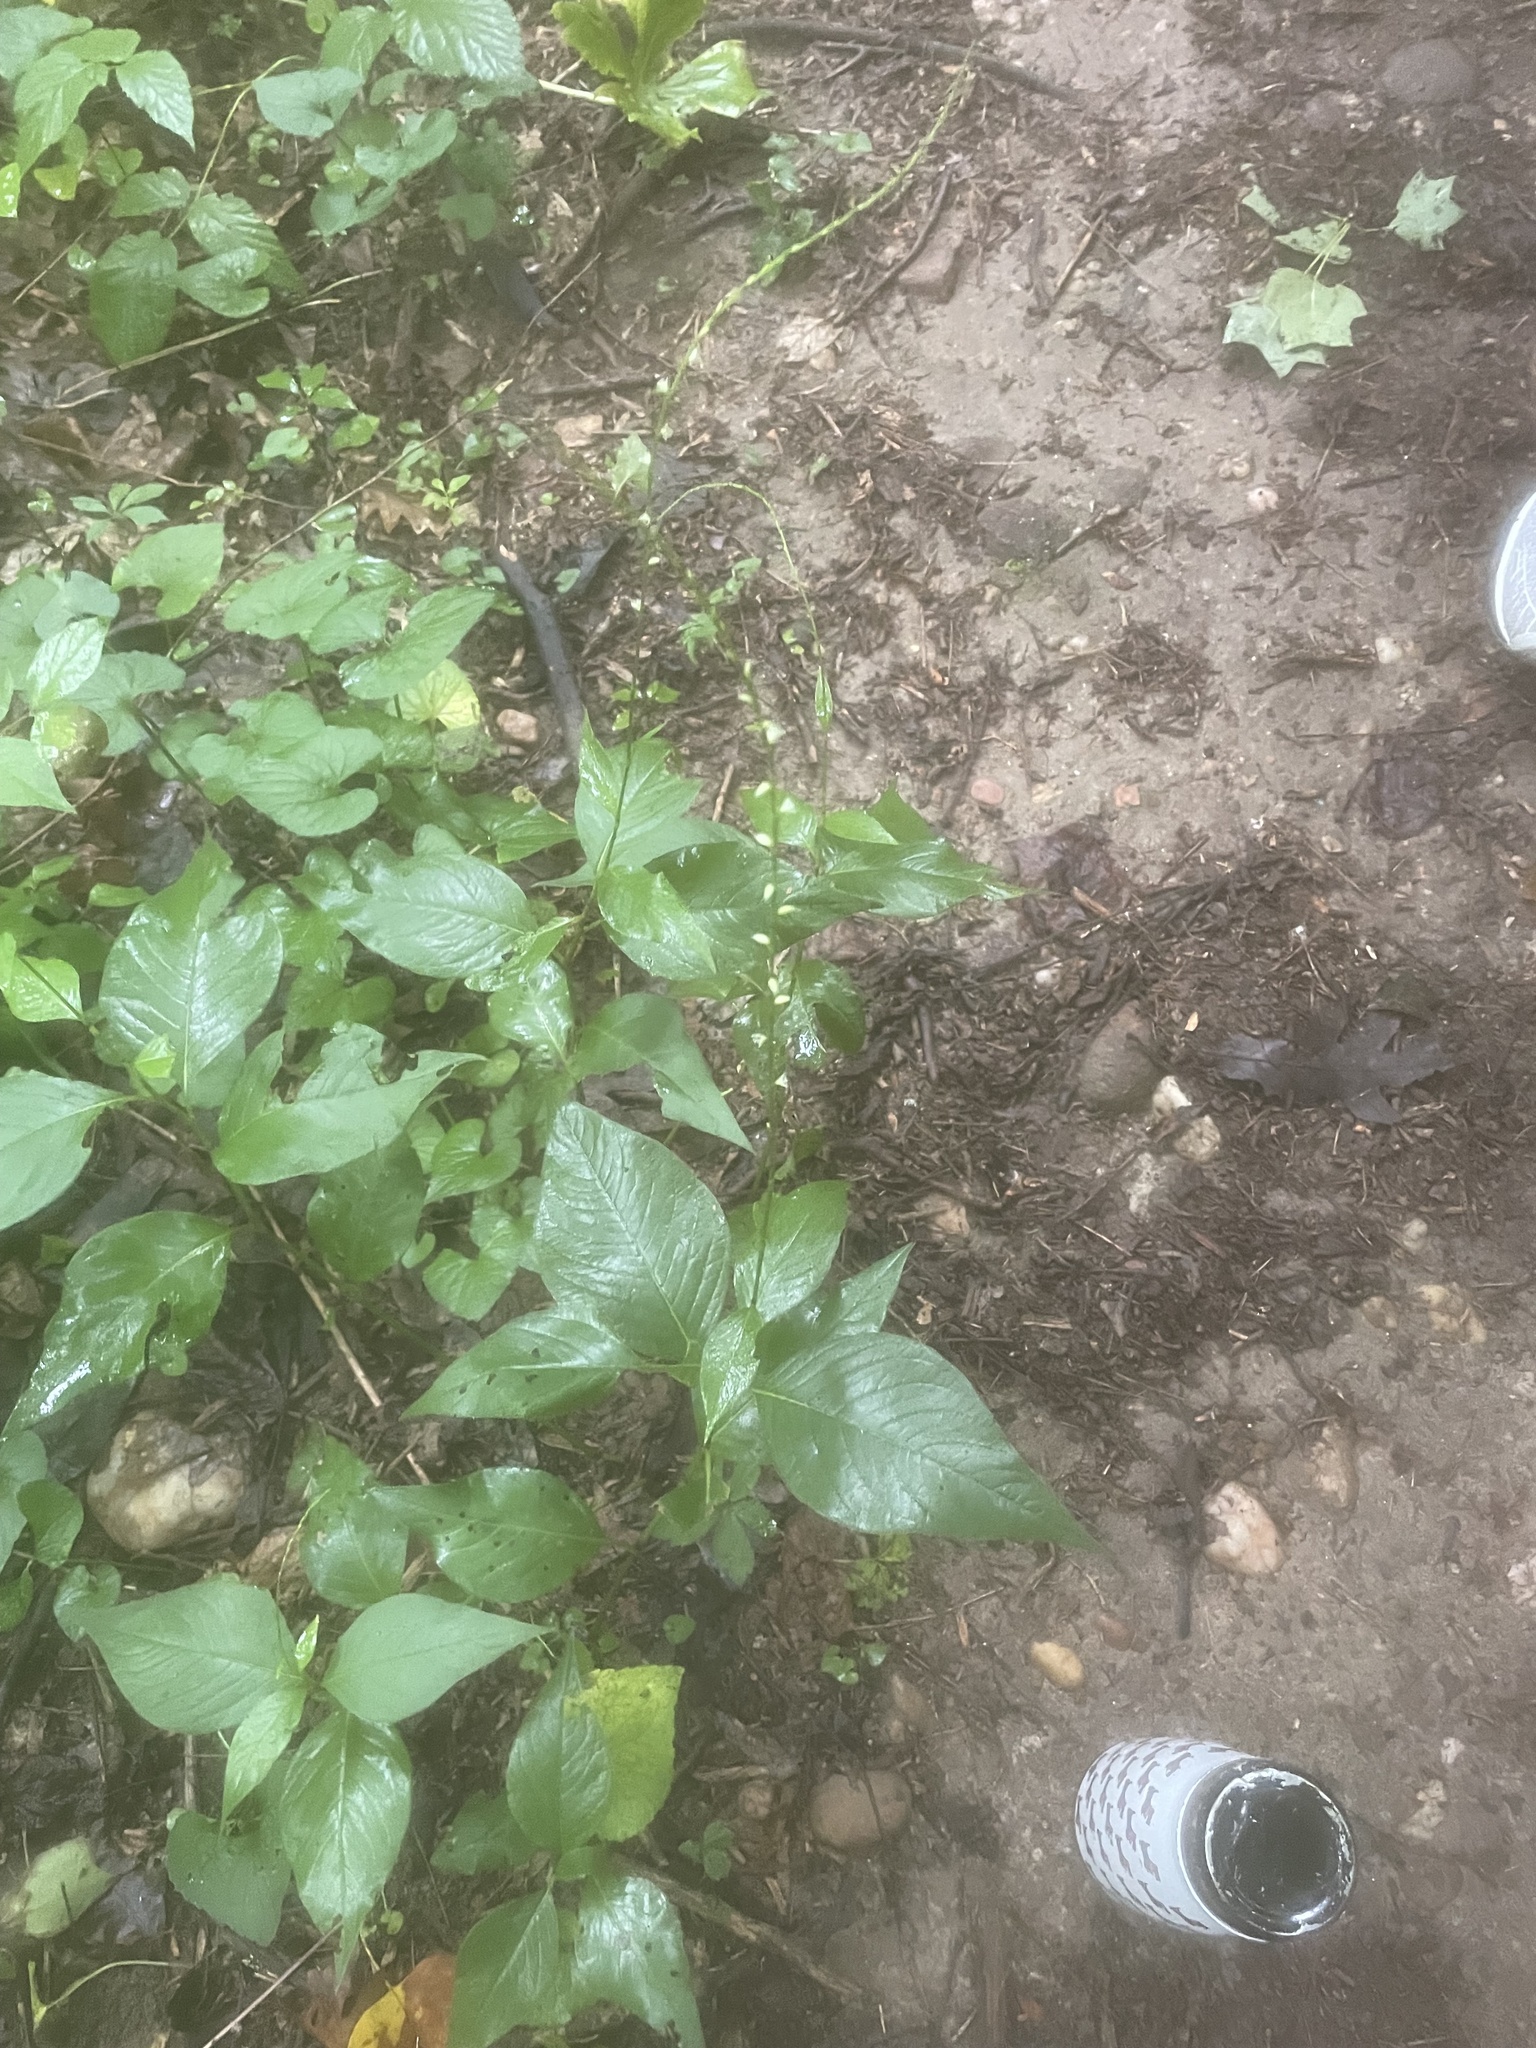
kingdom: Plantae
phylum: Tracheophyta
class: Magnoliopsida
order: Caryophyllales
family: Polygonaceae
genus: Persicaria
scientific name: Persicaria virginiana
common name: Jumpseed
